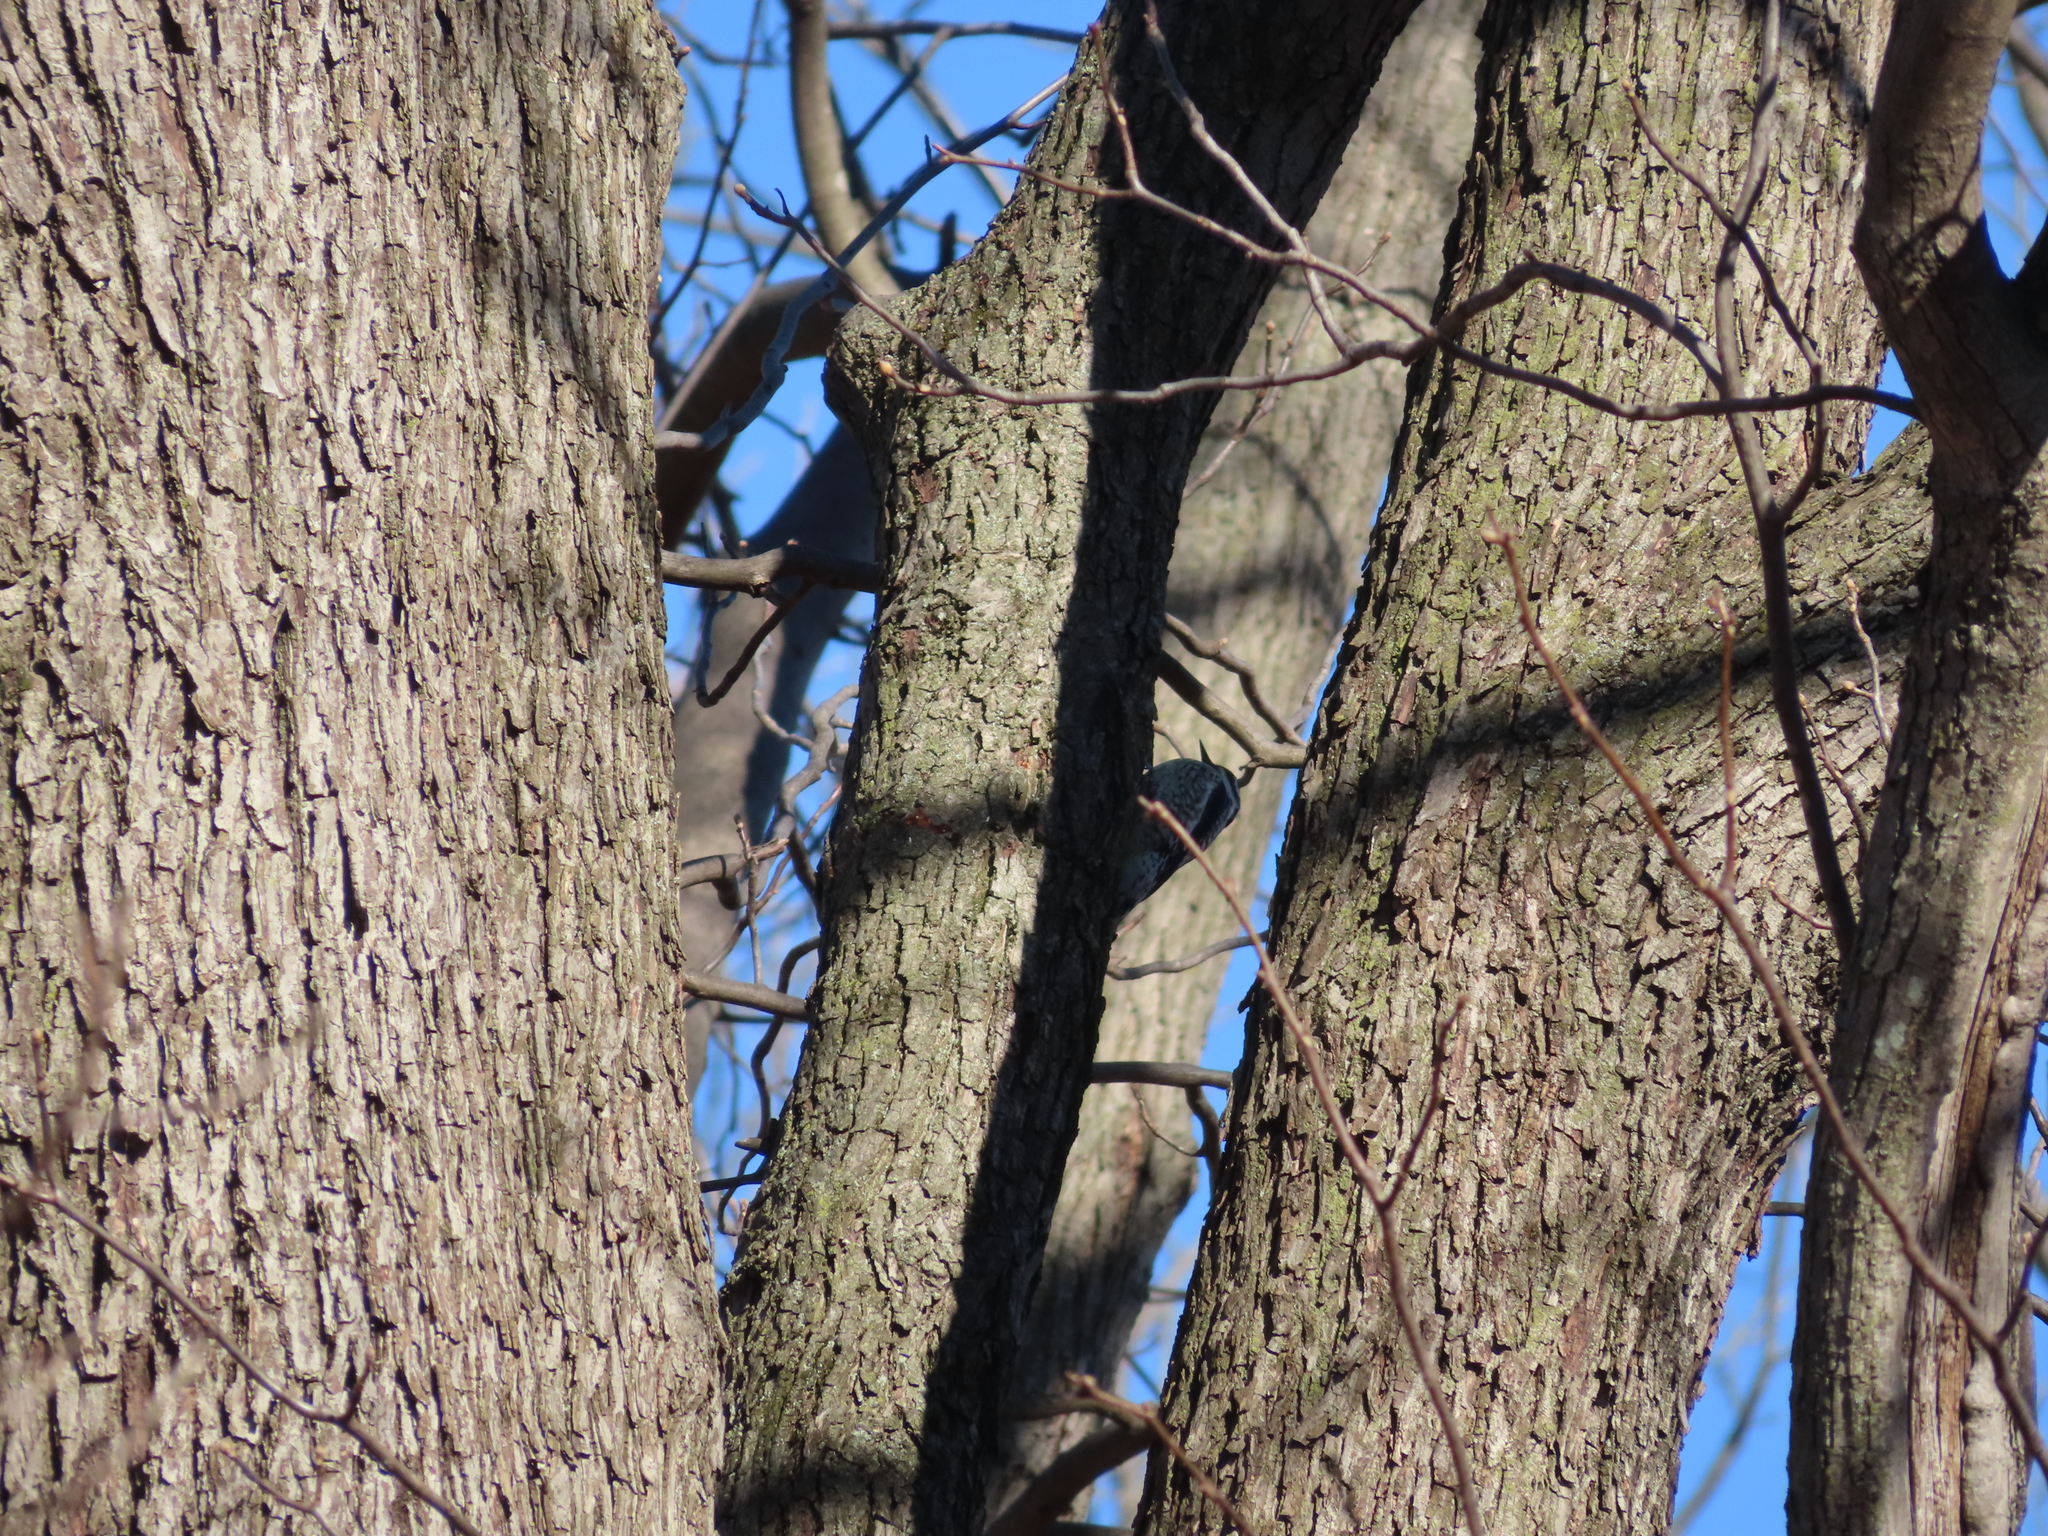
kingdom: Animalia
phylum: Chordata
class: Aves
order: Piciformes
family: Picidae
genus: Sphyrapicus
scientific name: Sphyrapicus varius
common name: Yellow-bellied sapsucker
